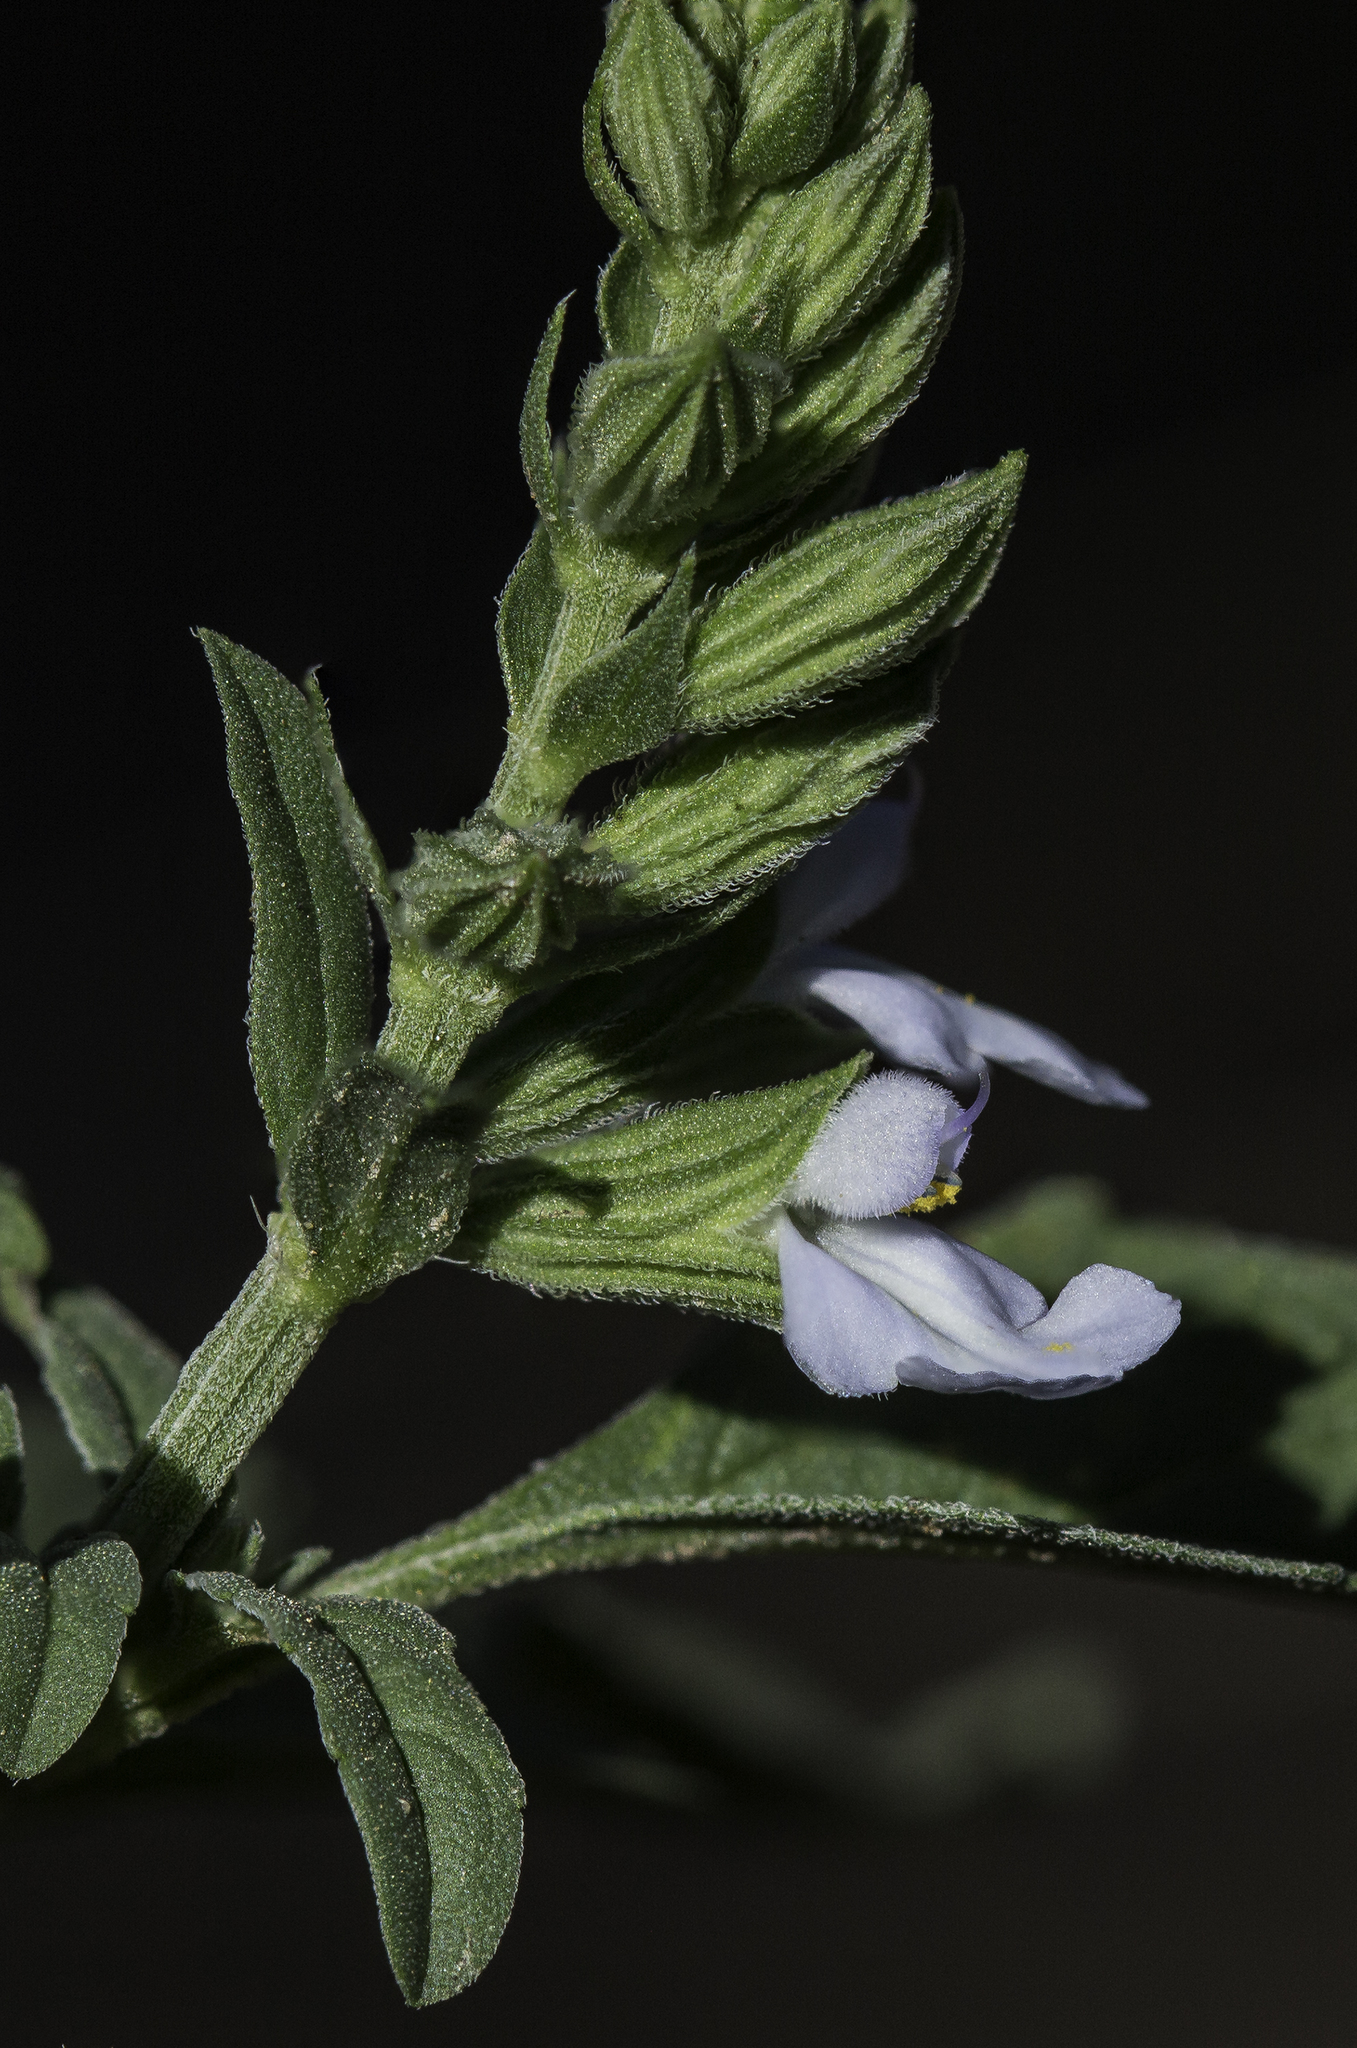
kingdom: Plantae
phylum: Tracheophyta
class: Magnoliopsida
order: Lamiales
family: Lamiaceae
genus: Salvia
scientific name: Salvia reflexa
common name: Mintweed
